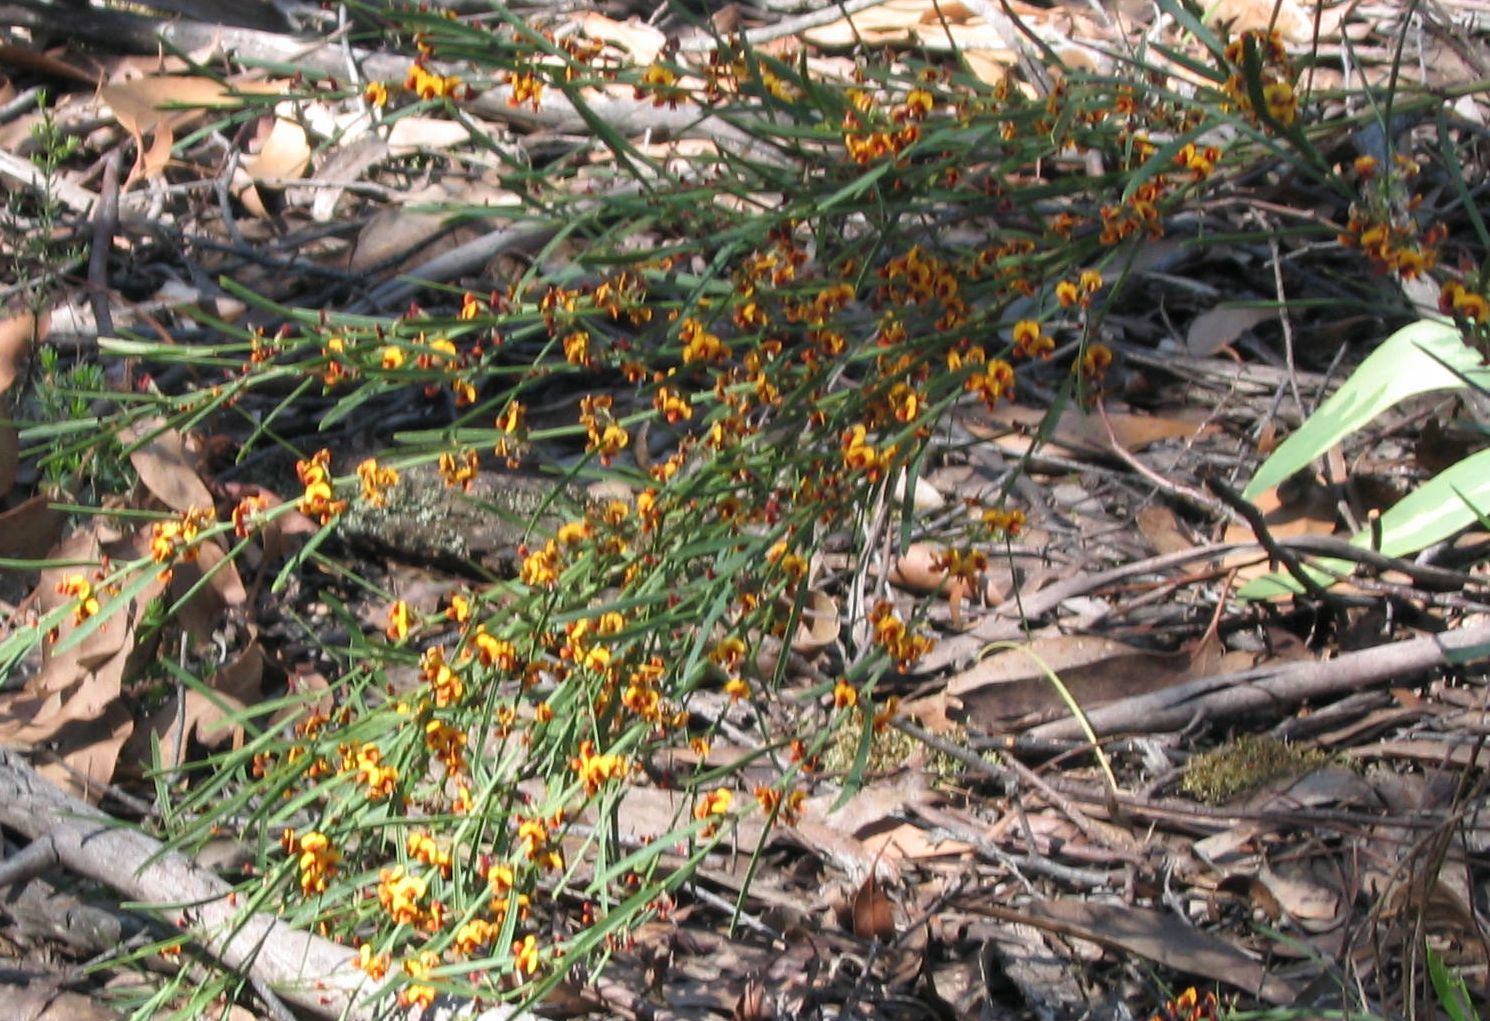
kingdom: Plantae
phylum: Tracheophyta
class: Magnoliopsida
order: Fabales
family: Fabaceae
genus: Daviesia
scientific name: Daviesia leptophylla
